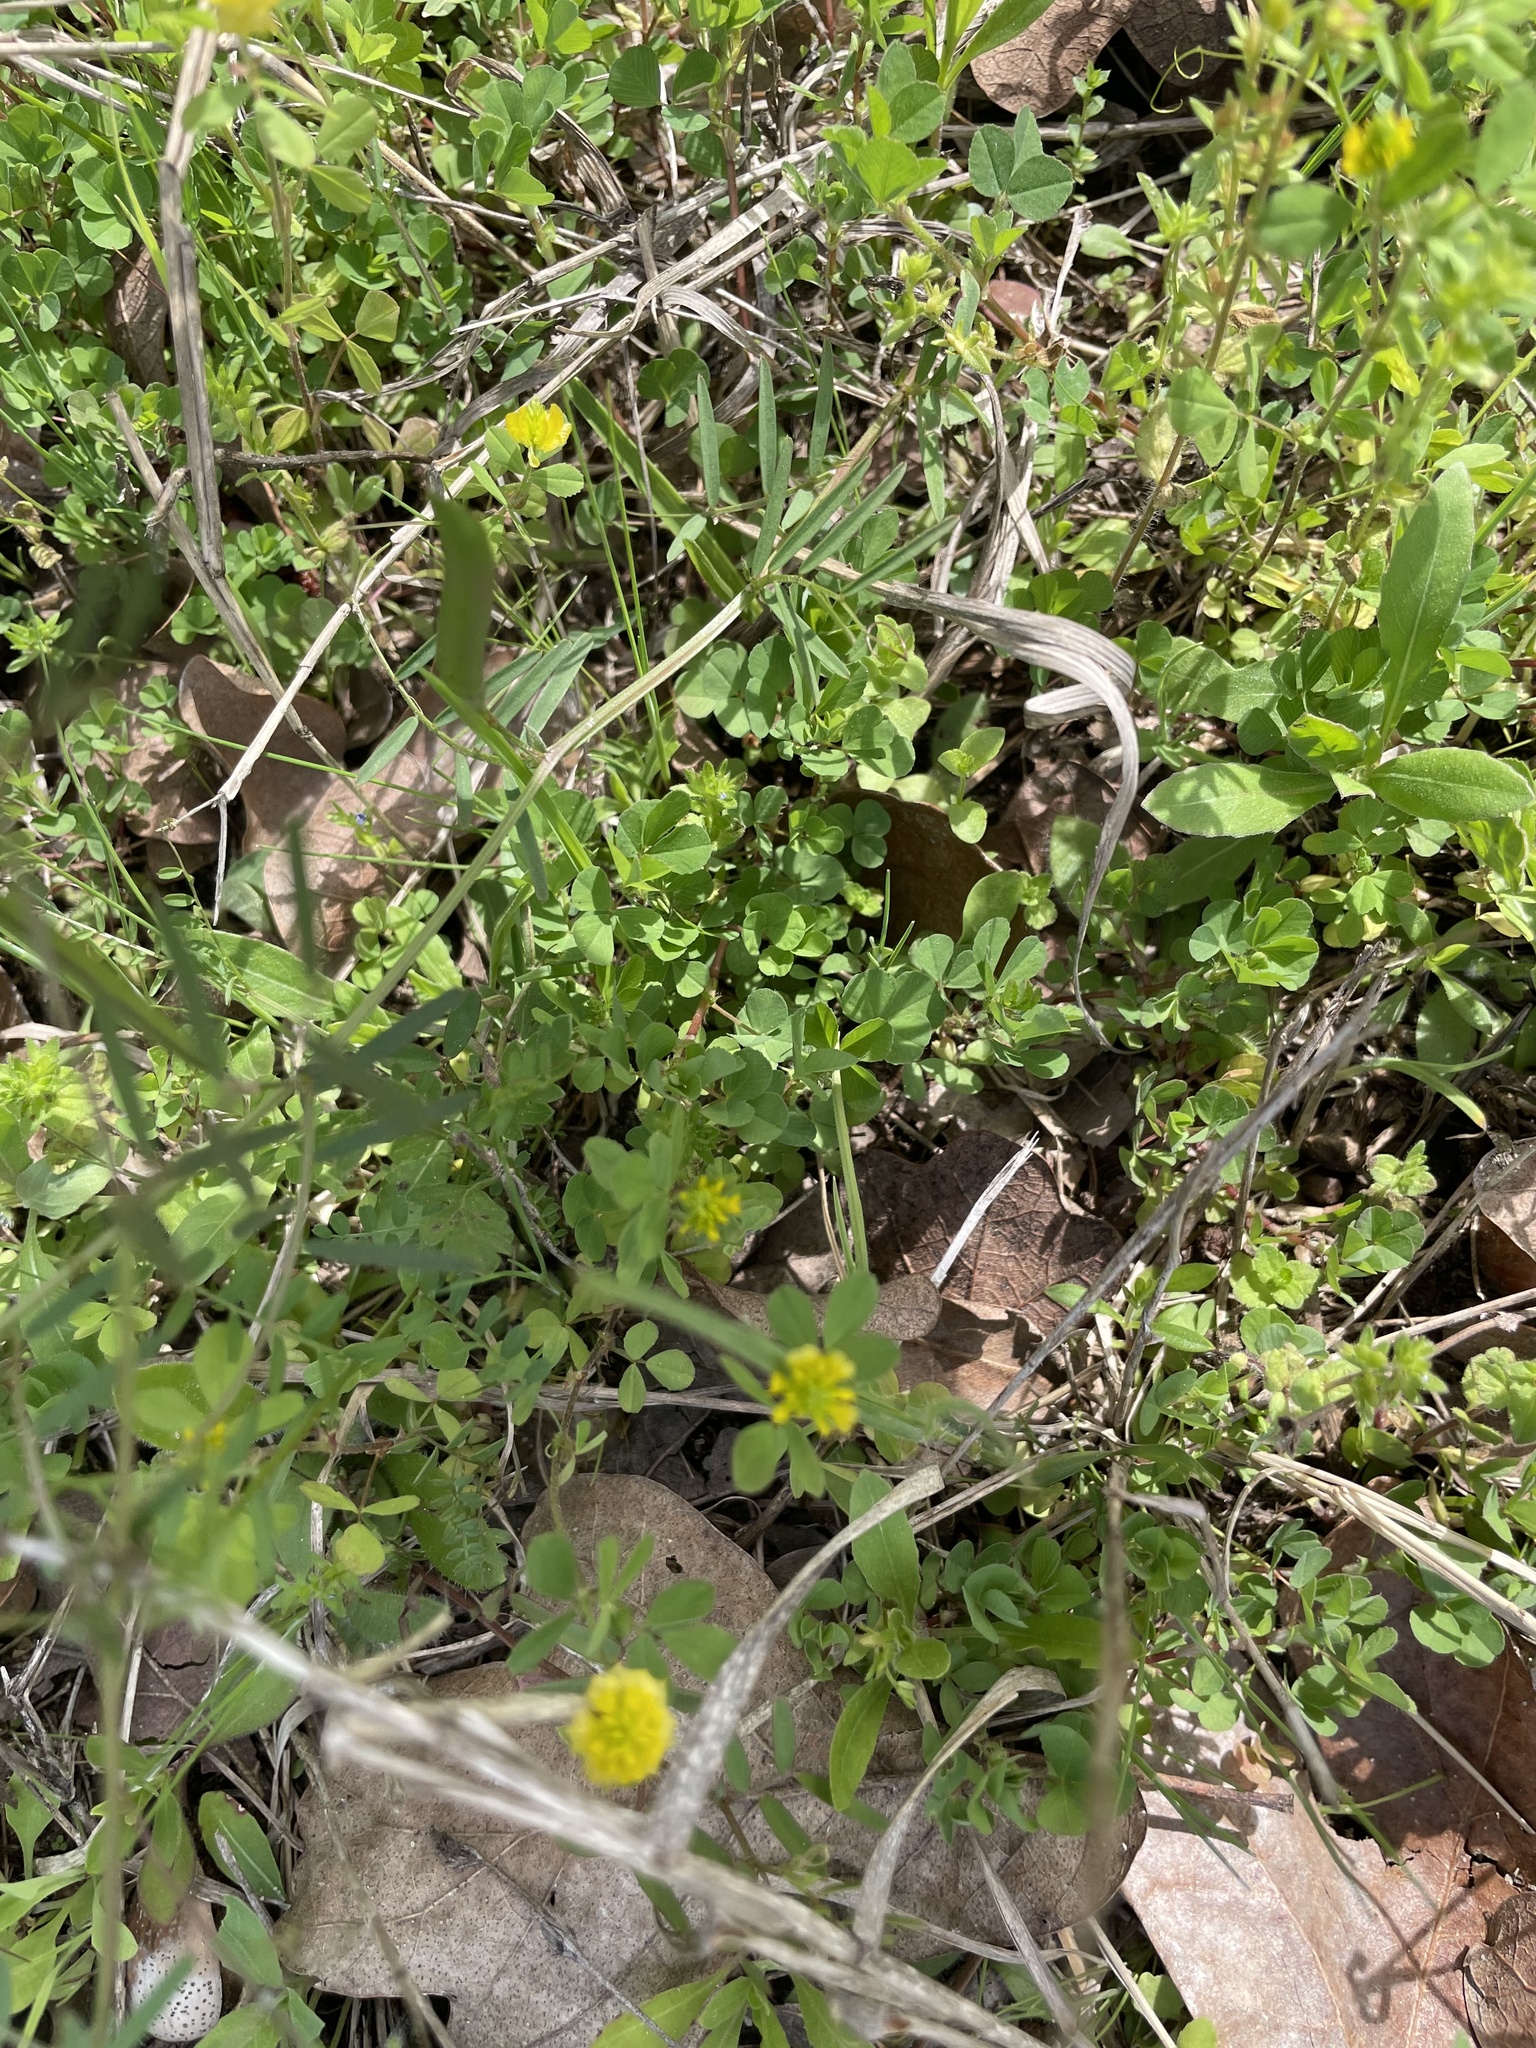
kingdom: Plantae
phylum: Tracheophyta
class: Magnoliopsida
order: Fabales
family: Fabaceae
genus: Trifolium
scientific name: Trifolium campestre
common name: Field clover
